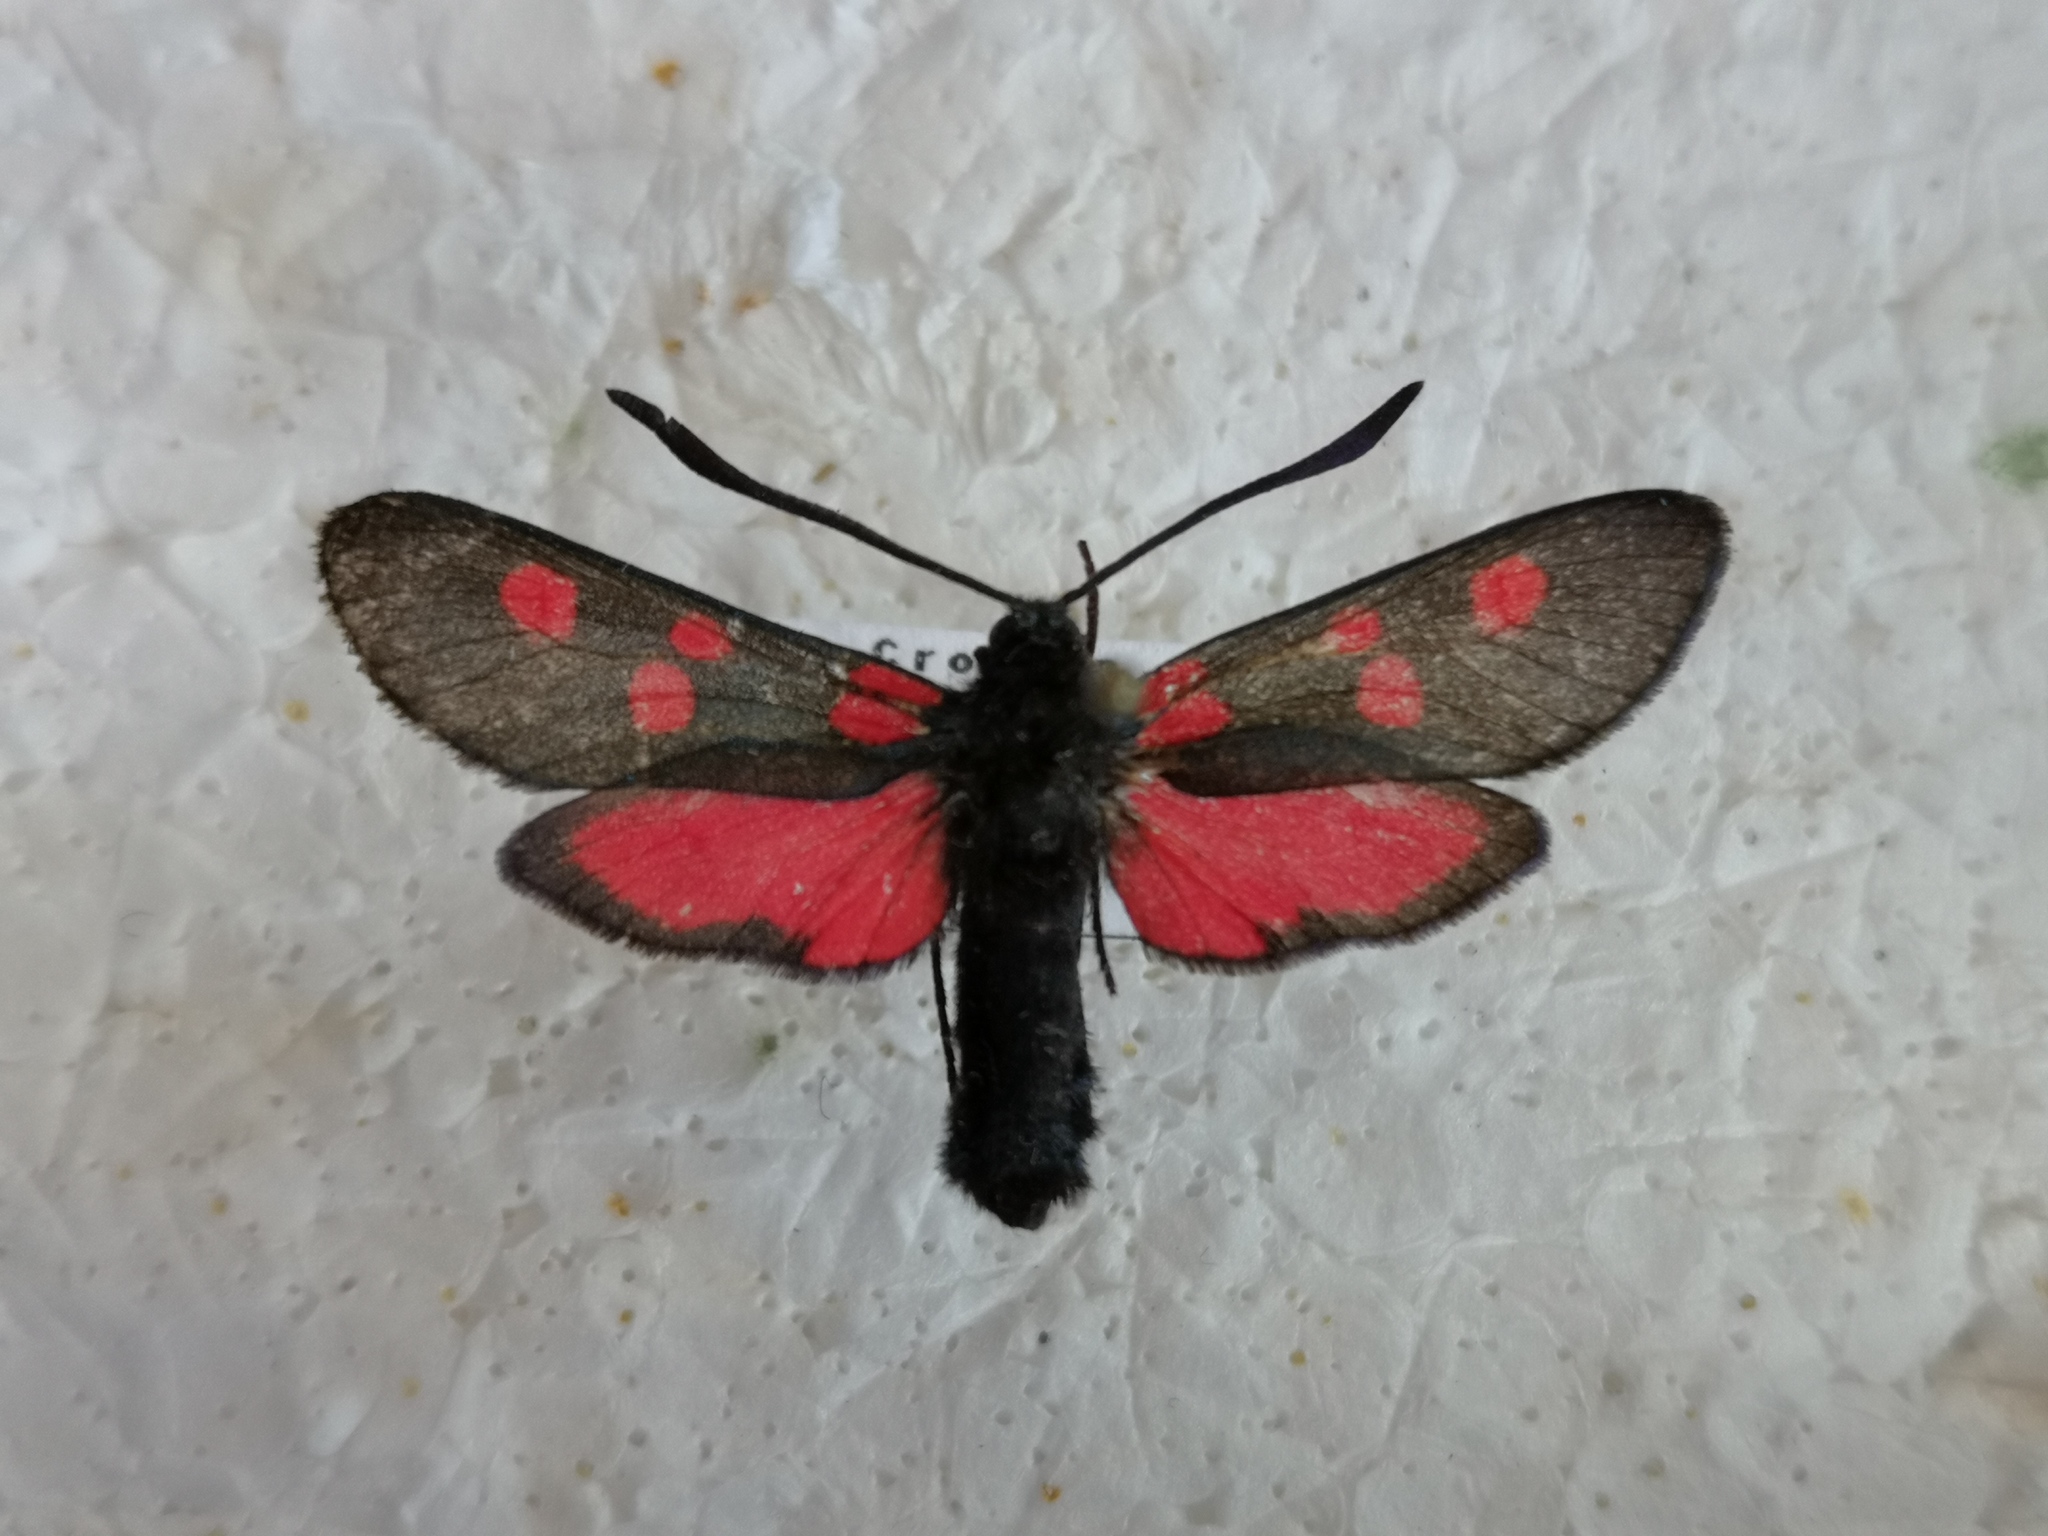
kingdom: Animalia
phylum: Arthropoda
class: Insecta
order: Lepidoptera
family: Zygaenidae
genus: Zygaena
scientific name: Zygaena lonicerae
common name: Narrow-bordered five-spot burnet
